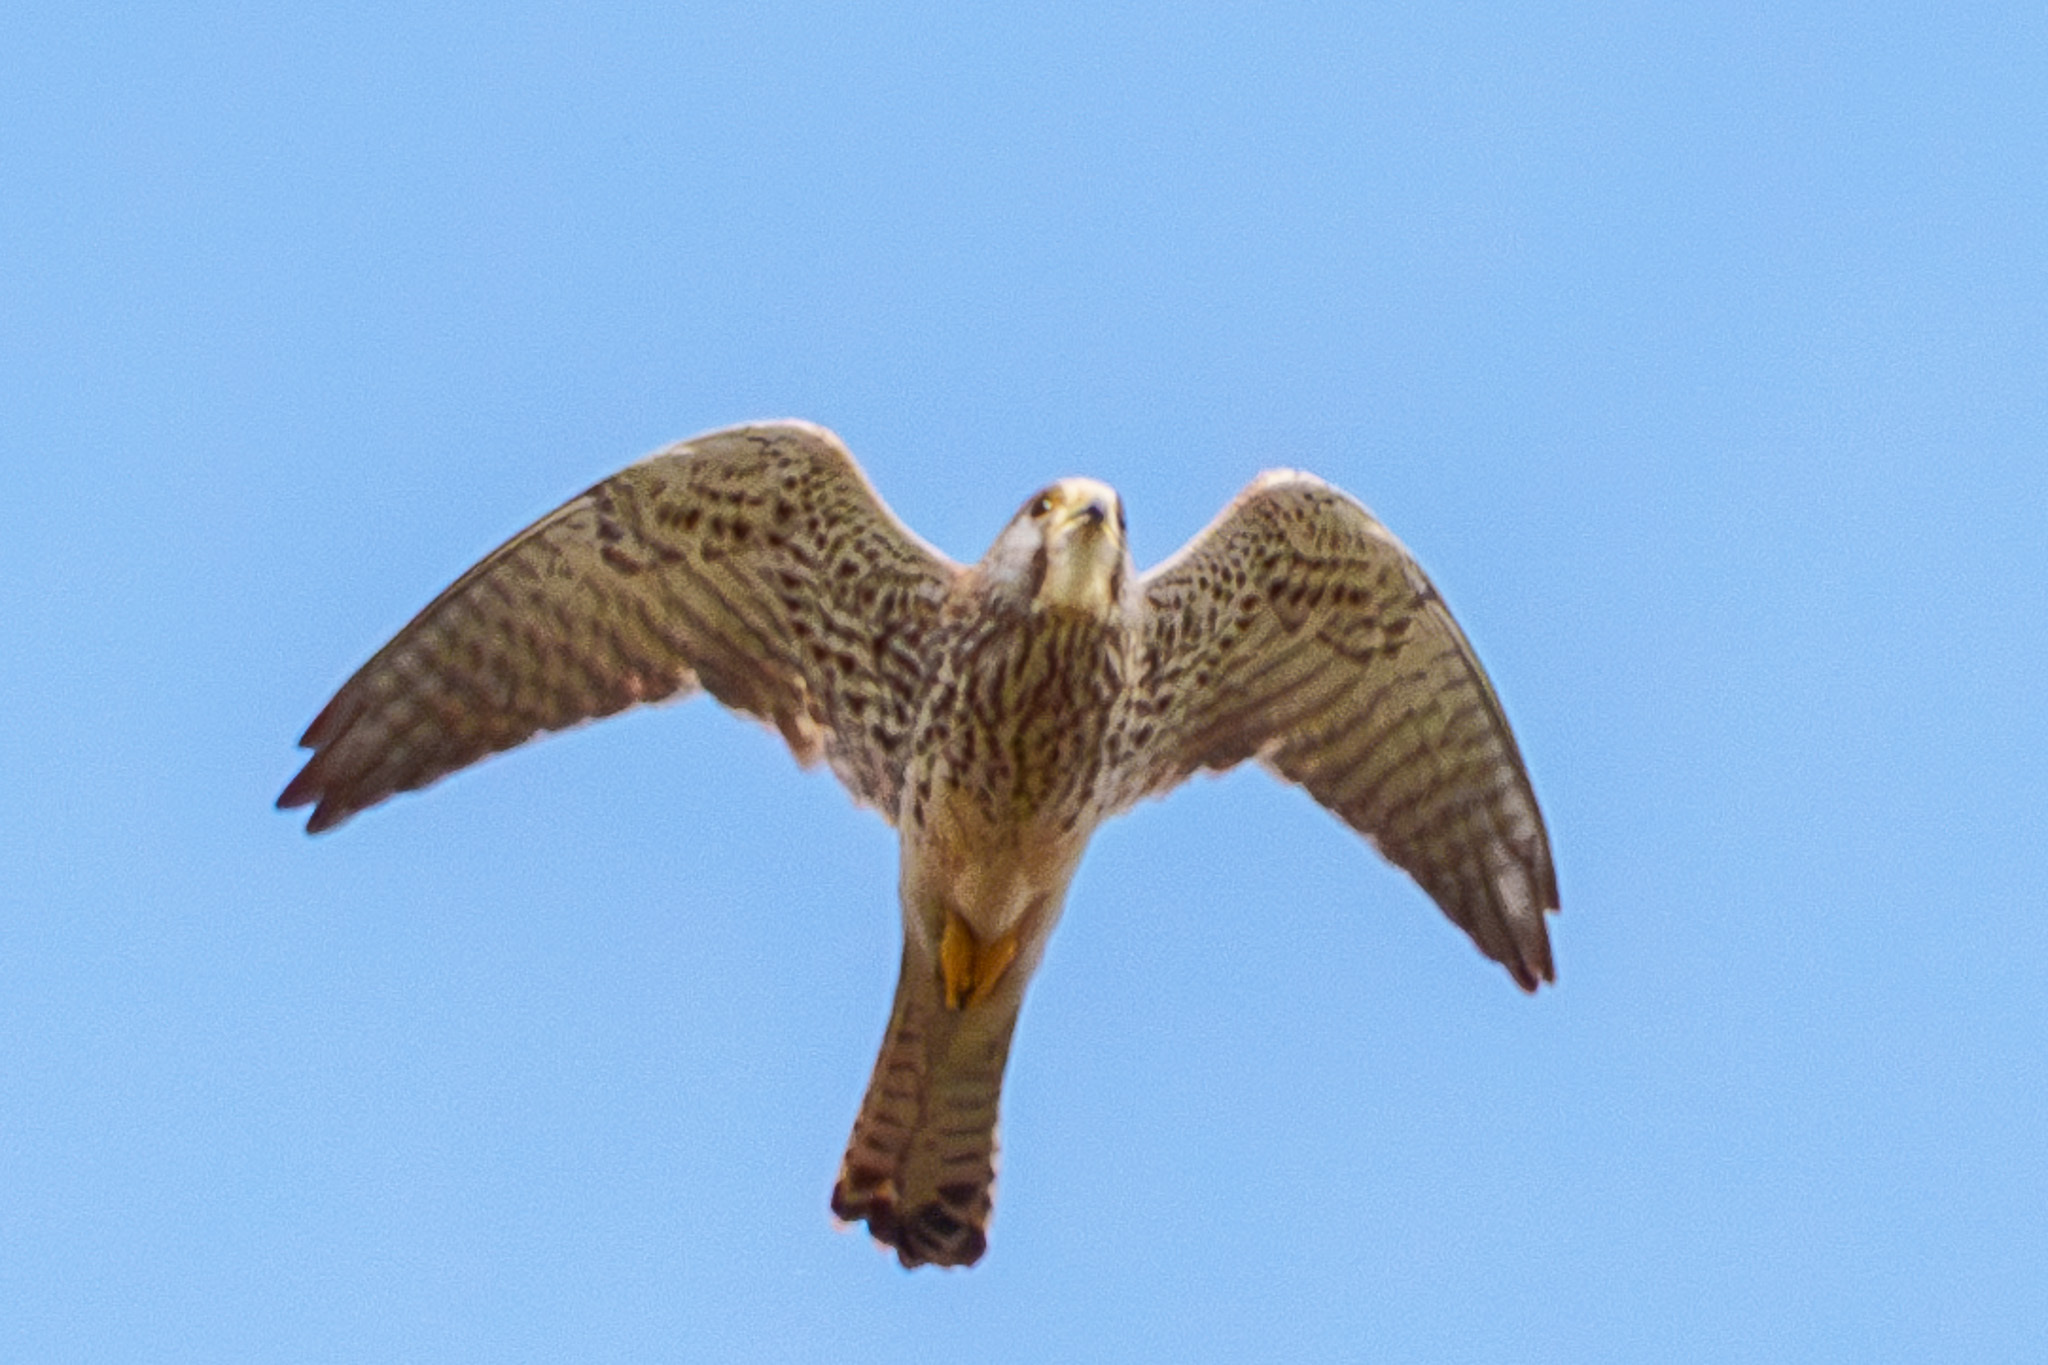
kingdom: Animalia
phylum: Chordata
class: Aves
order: Falconiformes
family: Falconidae
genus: Falco
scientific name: Falco tinnunculus
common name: Common kestrel
